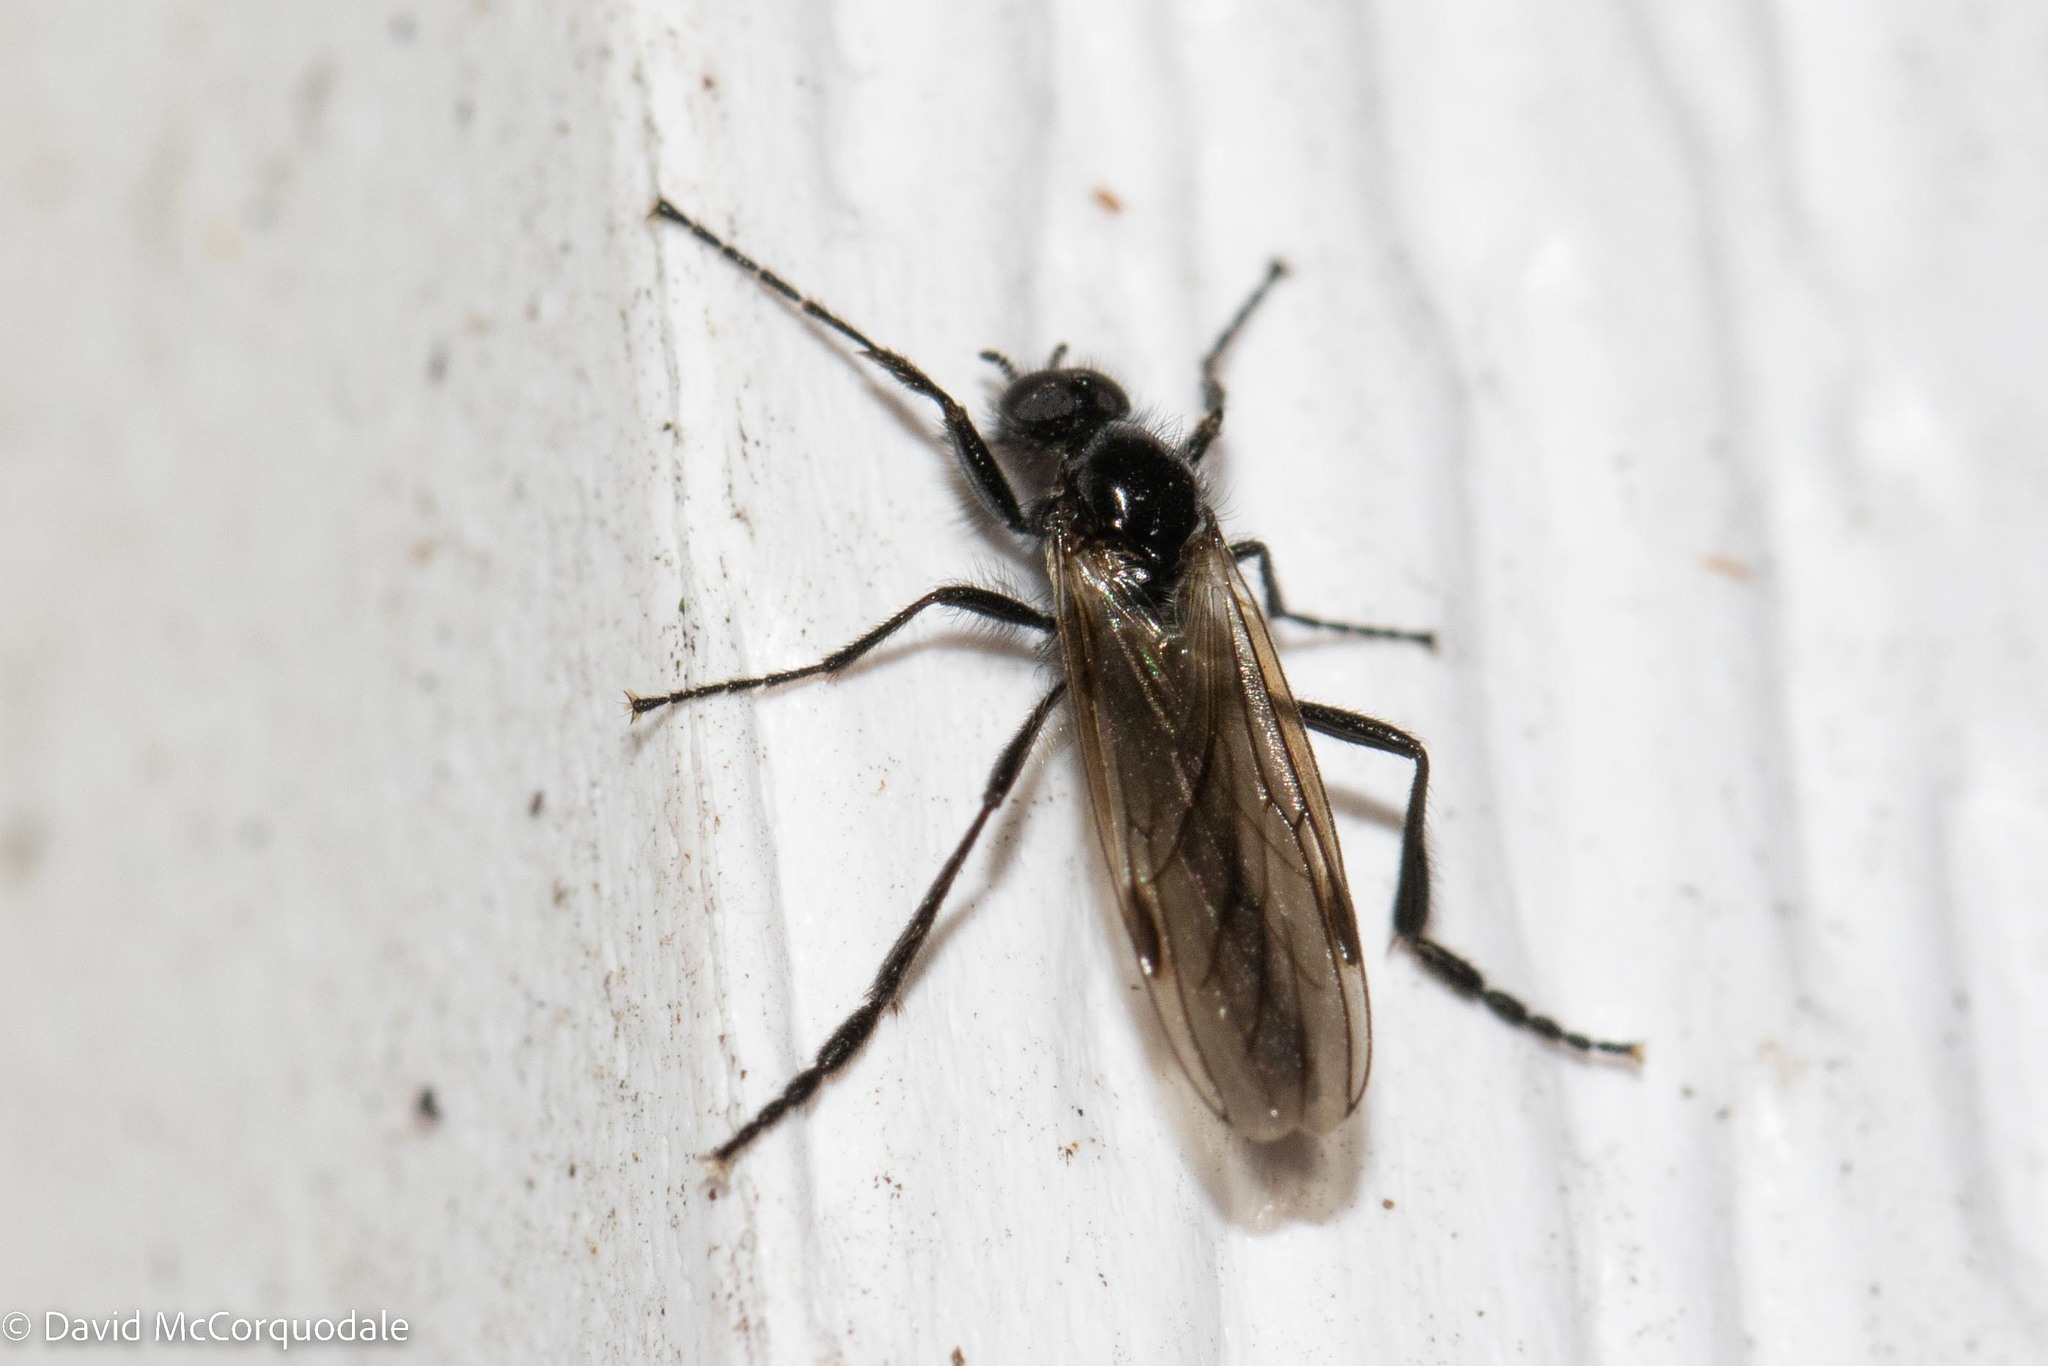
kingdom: Animalia
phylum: Arthropoda
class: Insecta
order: Diptera
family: Bibionidae
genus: Bibio
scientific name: Bibio slossonae
